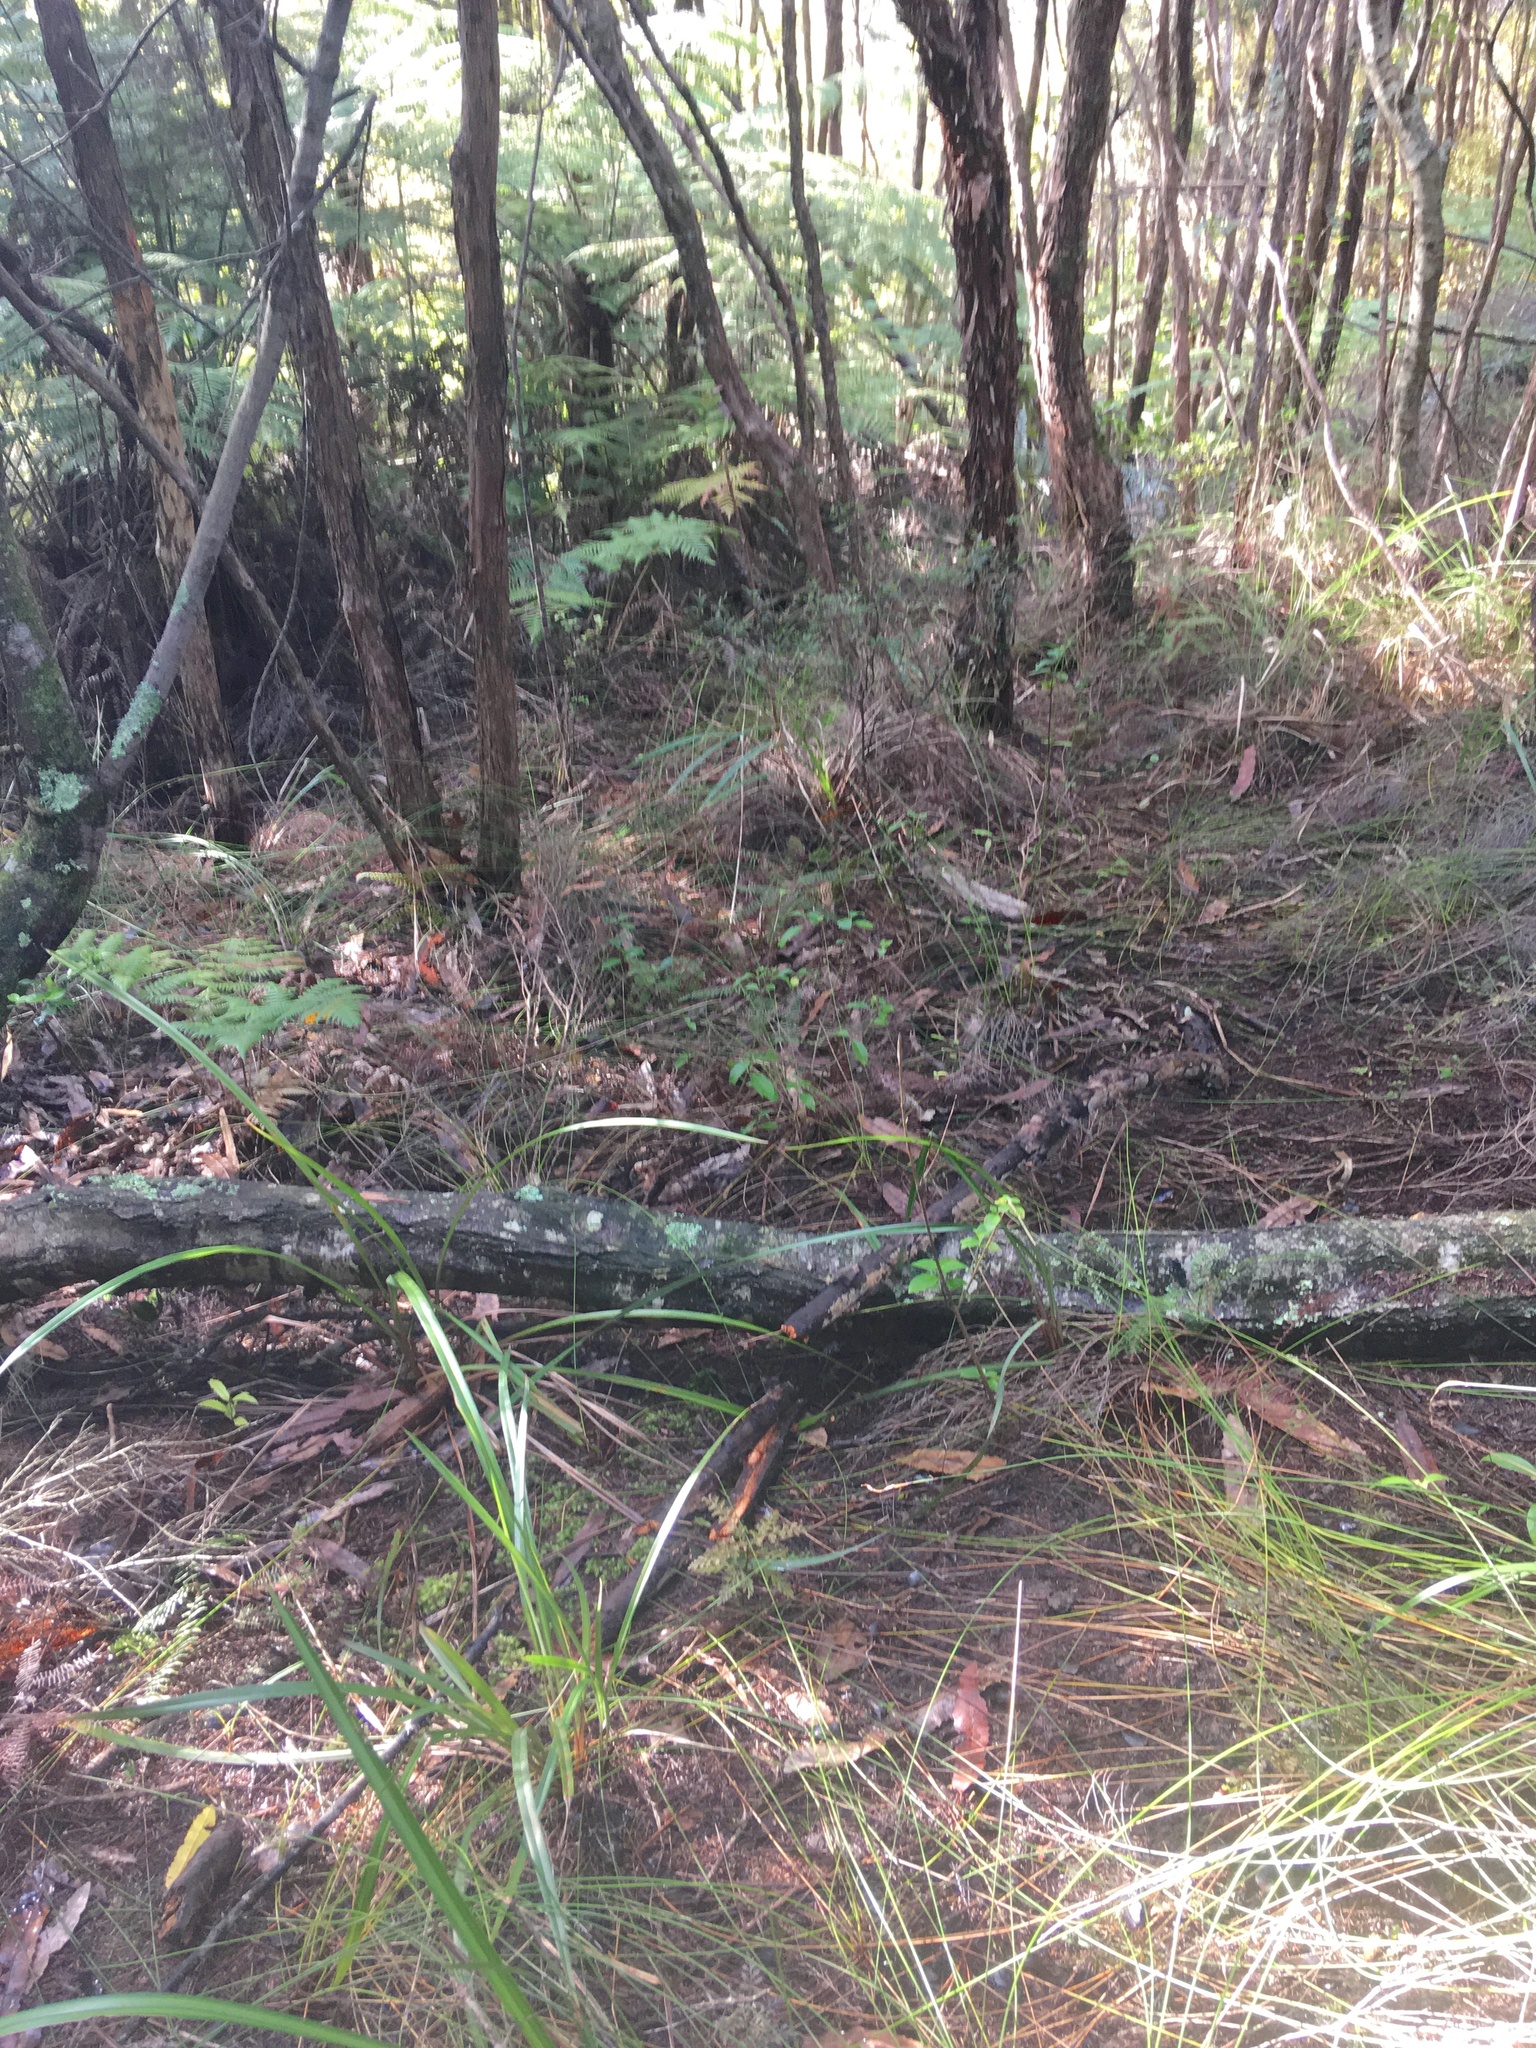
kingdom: Plantae
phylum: Tracheophyta
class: Liliopsida
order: Asparagales
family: Asphodelaceae
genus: Dianella
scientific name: Dianella nigra
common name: New zealand-blueberry
